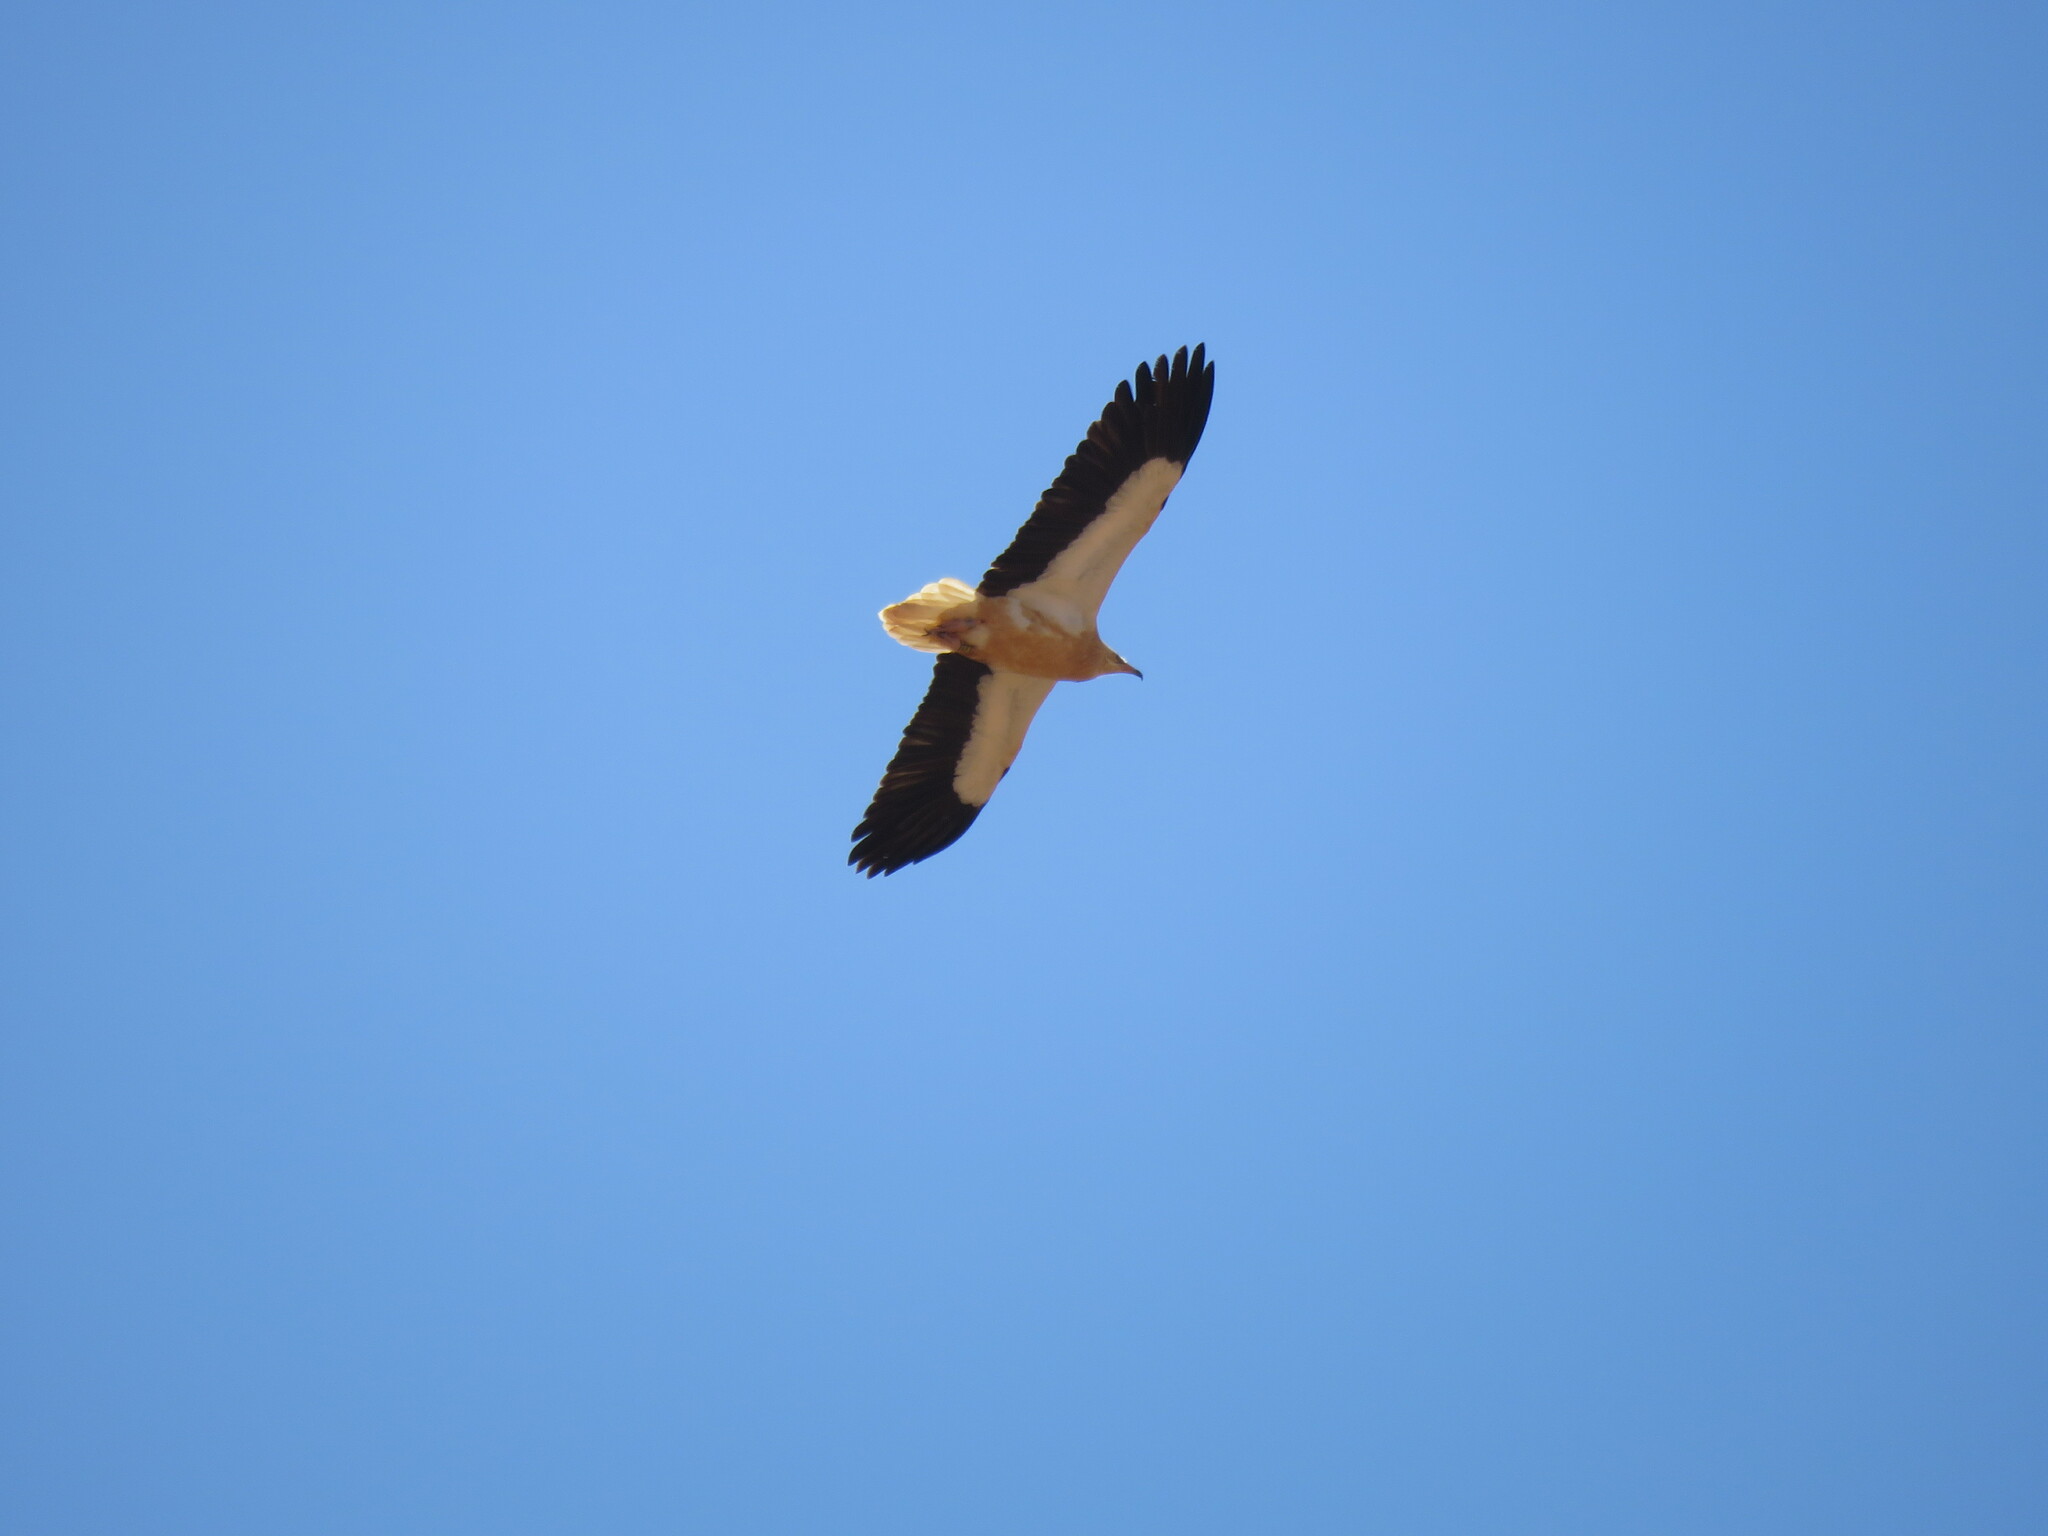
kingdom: Animalia
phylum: Chordata
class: Aves
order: Accipitriformes
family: Accipitridae
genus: Neophron
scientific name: Neophron percnopterus
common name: Egyptian vulture
